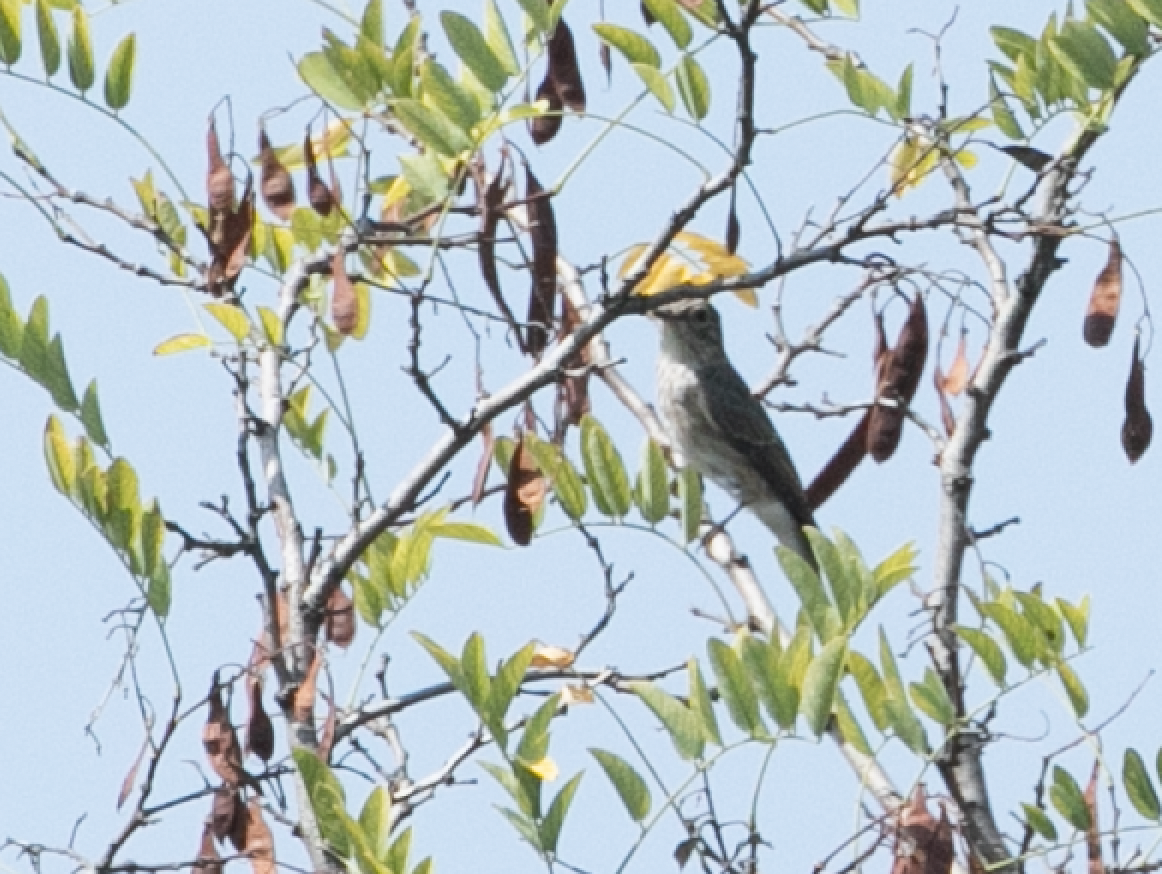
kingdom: Animalia
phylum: Chordata
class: Aves
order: Passeriformes
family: Muscicapidae
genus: Muscicapa
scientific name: Muscicapa striata
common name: Spotted flycatcher
